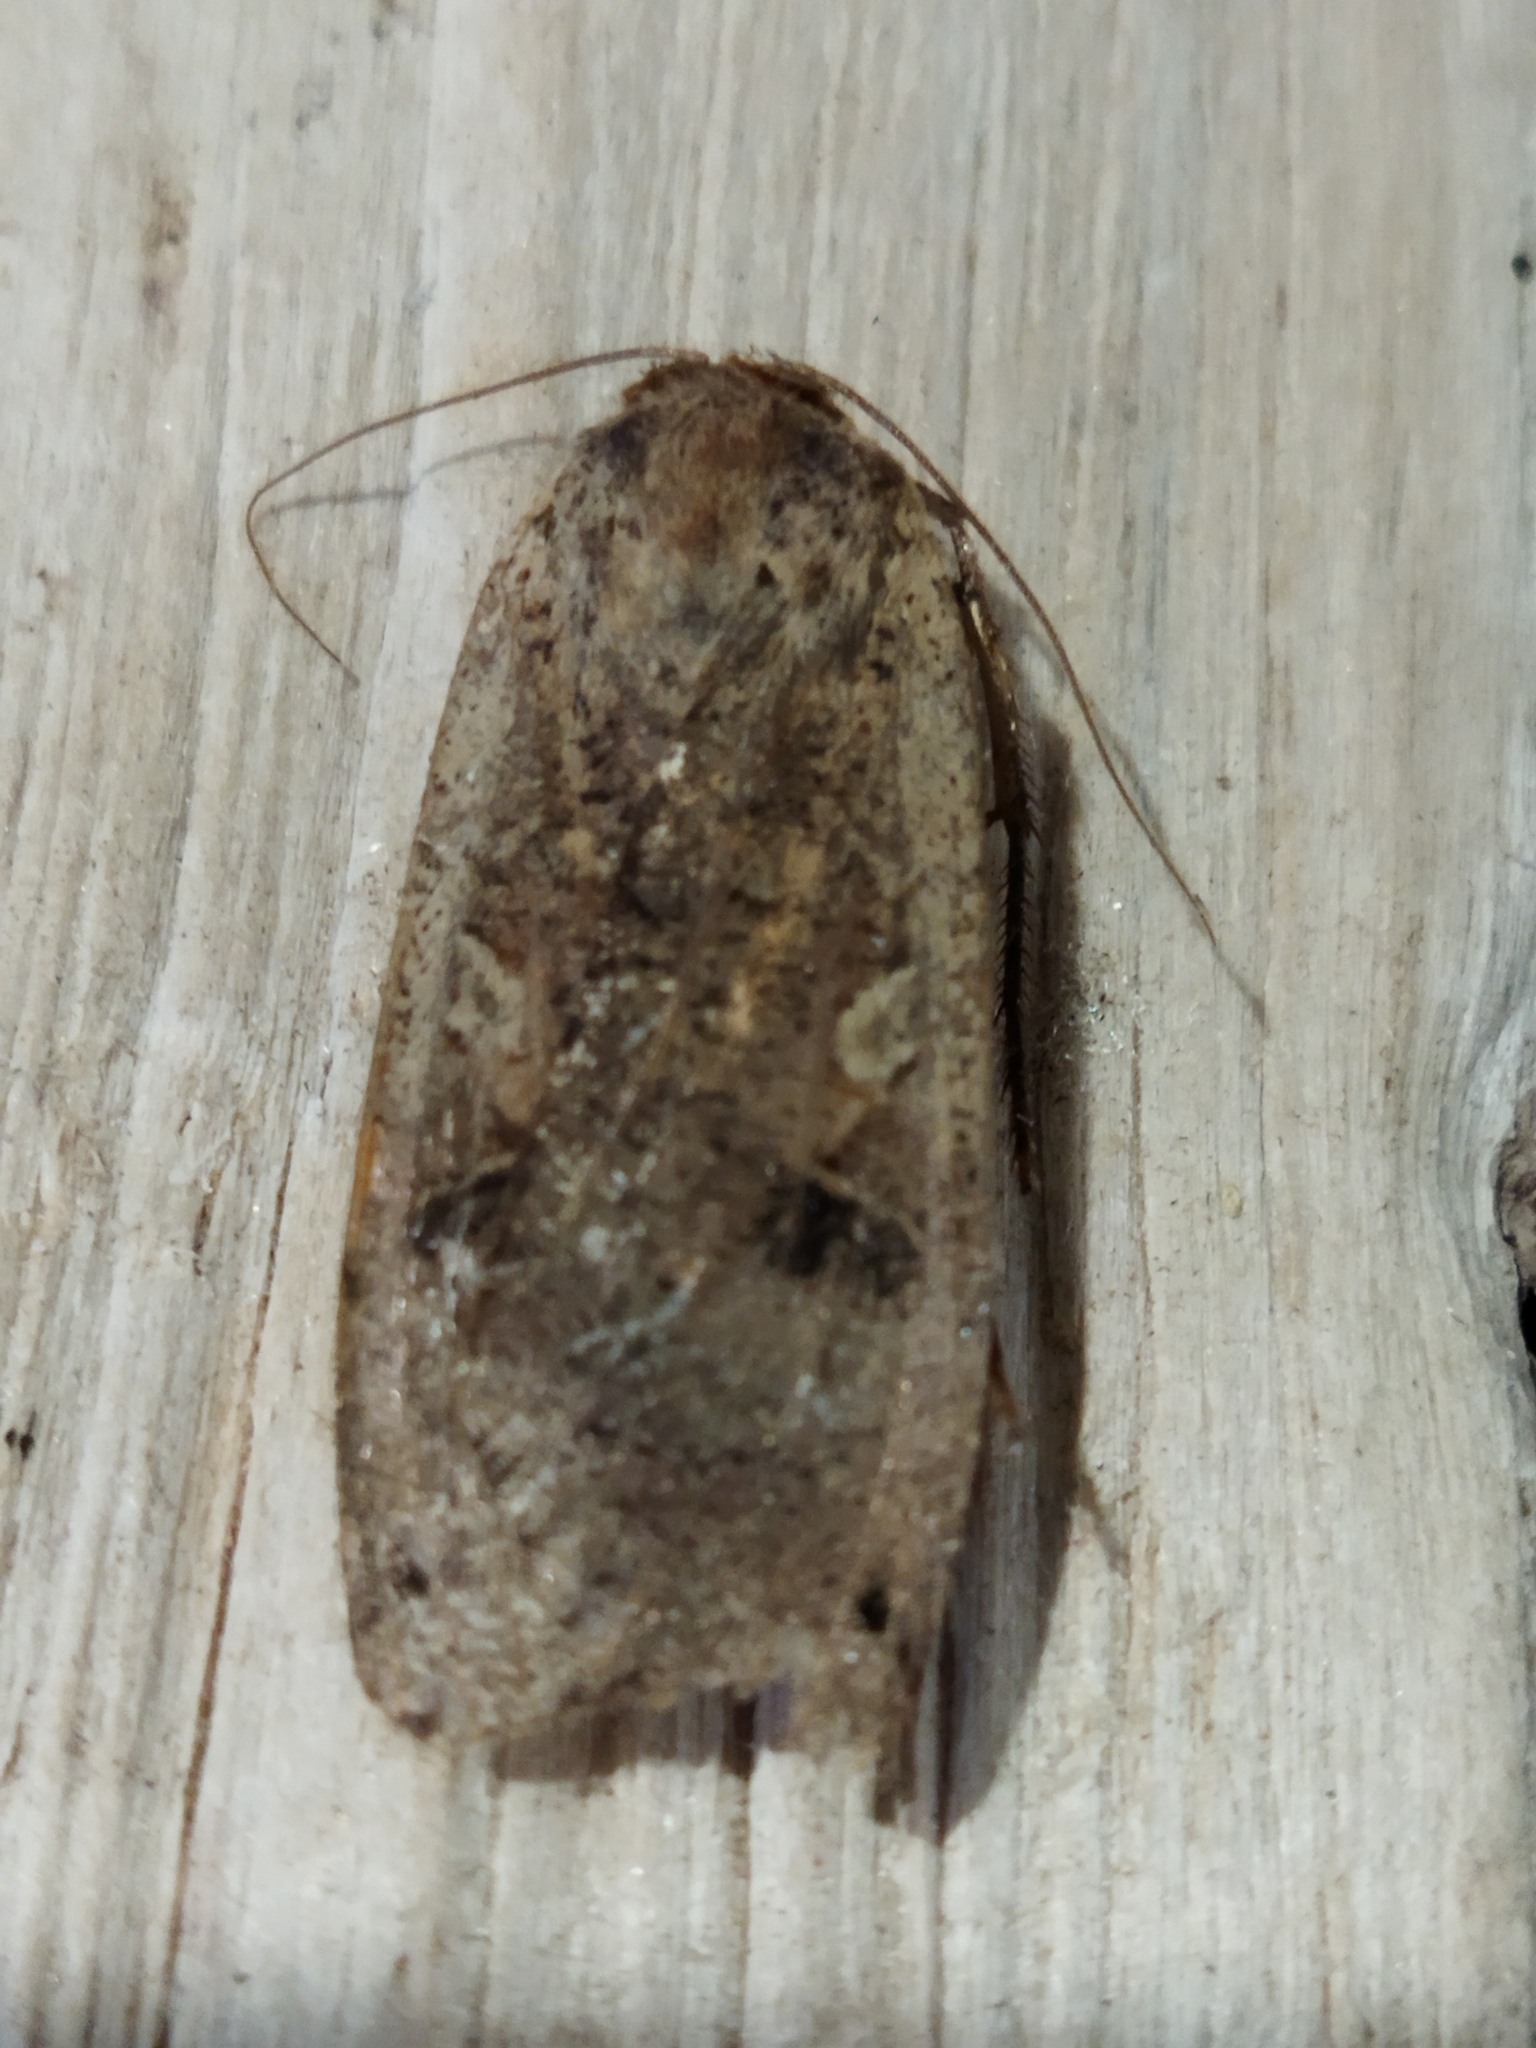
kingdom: Animalia
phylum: Arthropoda
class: Insecta
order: Lepidoptera
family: Noctuidae
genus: Noctua
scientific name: Noctua pronuba
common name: Large yellow underwing
